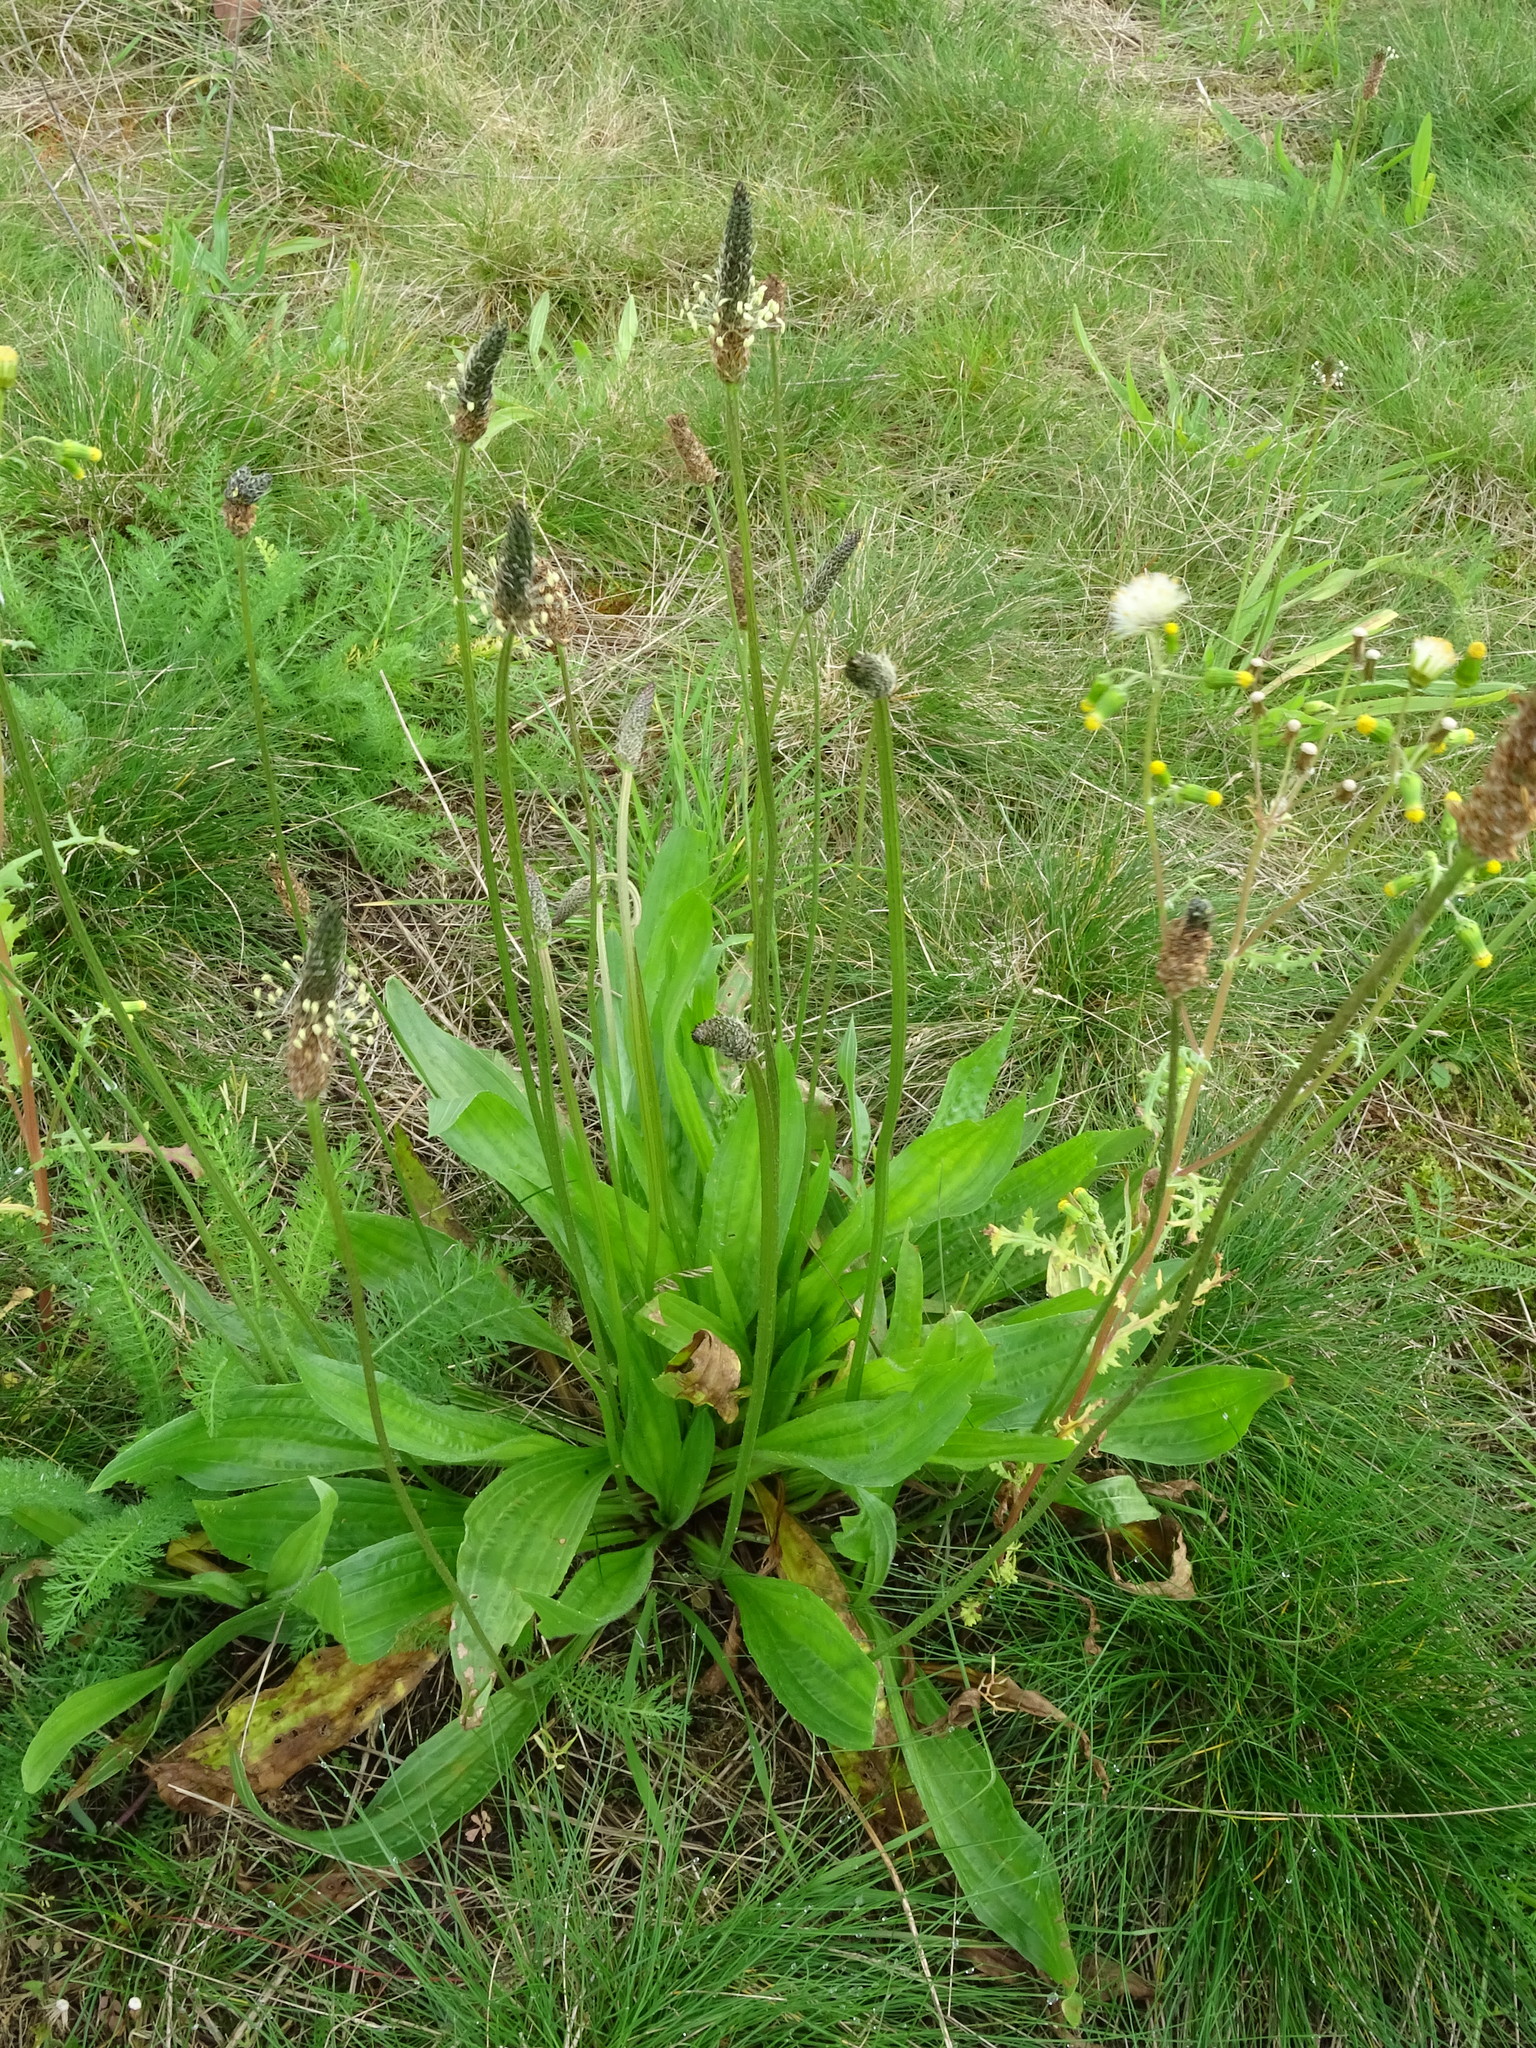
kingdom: Plantae
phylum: Tracheophyta
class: Magnoliopsida
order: Lamiales
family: Plantaginaceae
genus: Plantago
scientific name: Plantago lanceolata
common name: Ribwort plantain
